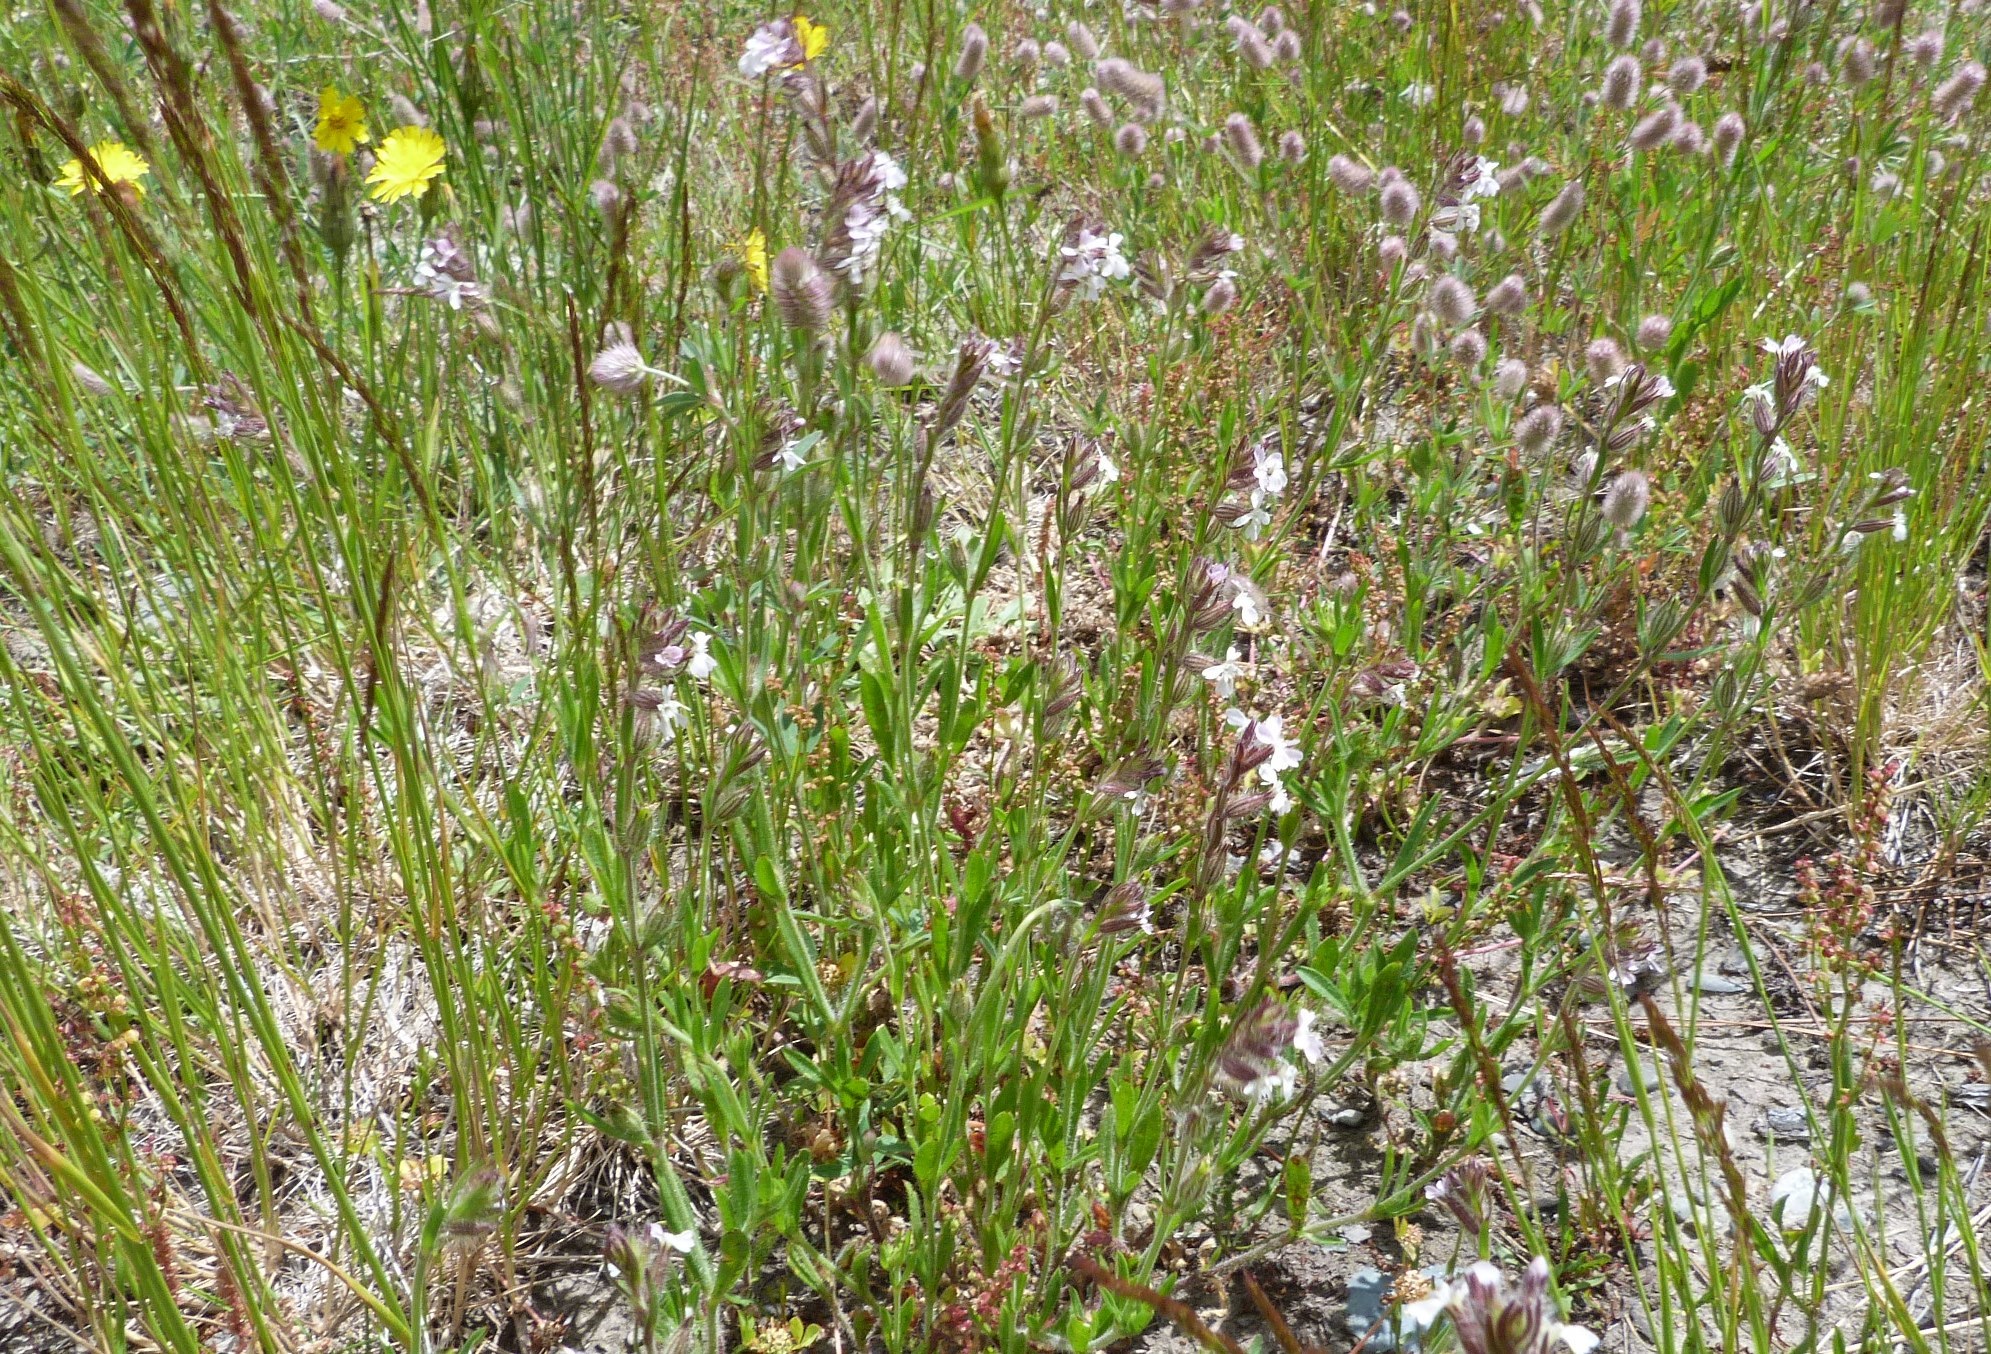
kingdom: Plantae
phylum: Tracheophyta
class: Magnoliopsida
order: Caryophyllales
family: Caryophyllaceae
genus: Silene
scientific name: Silene gallica
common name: Small-flowered catchfly
